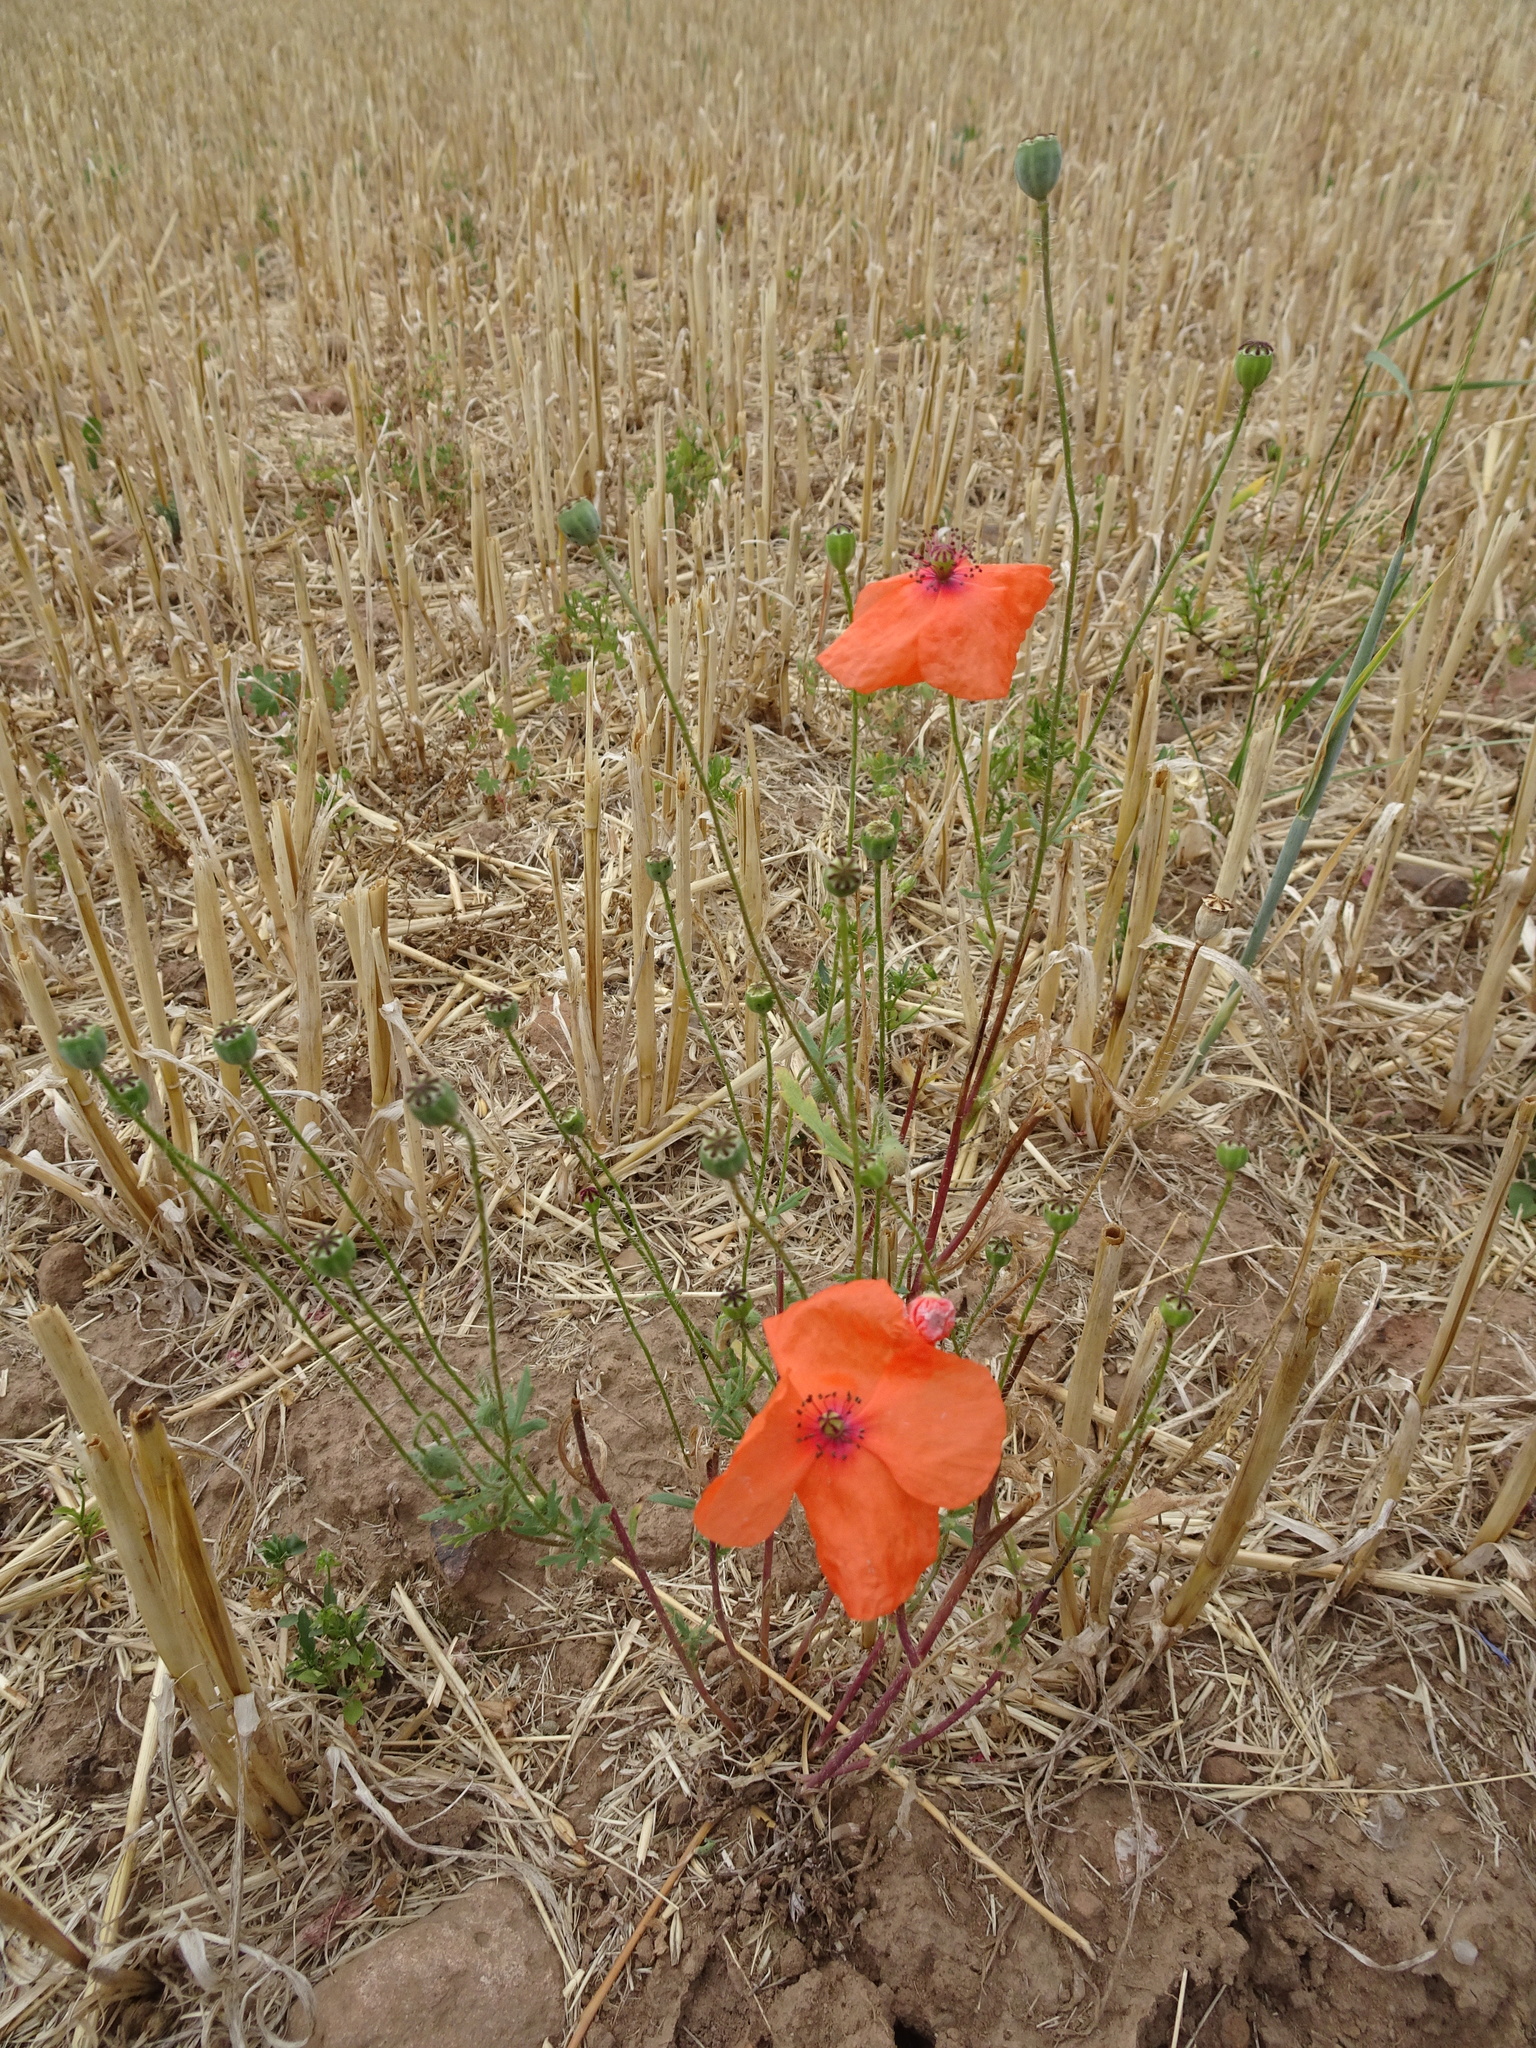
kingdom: Plantae
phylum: Tracheophyta
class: Magnoliopsida
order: Ranunculales
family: Papaveraceae
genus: Papaver
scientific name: Papaver rhoeas
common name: Corn poppy
